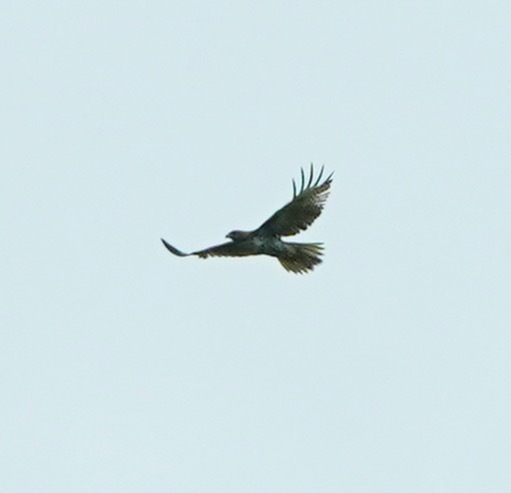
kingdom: Animalia
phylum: Chordata
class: Aves
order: Accipitriformes
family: Accipitridae
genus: Buteo
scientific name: Buteo jamaicensis
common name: Red-tailed hawk
